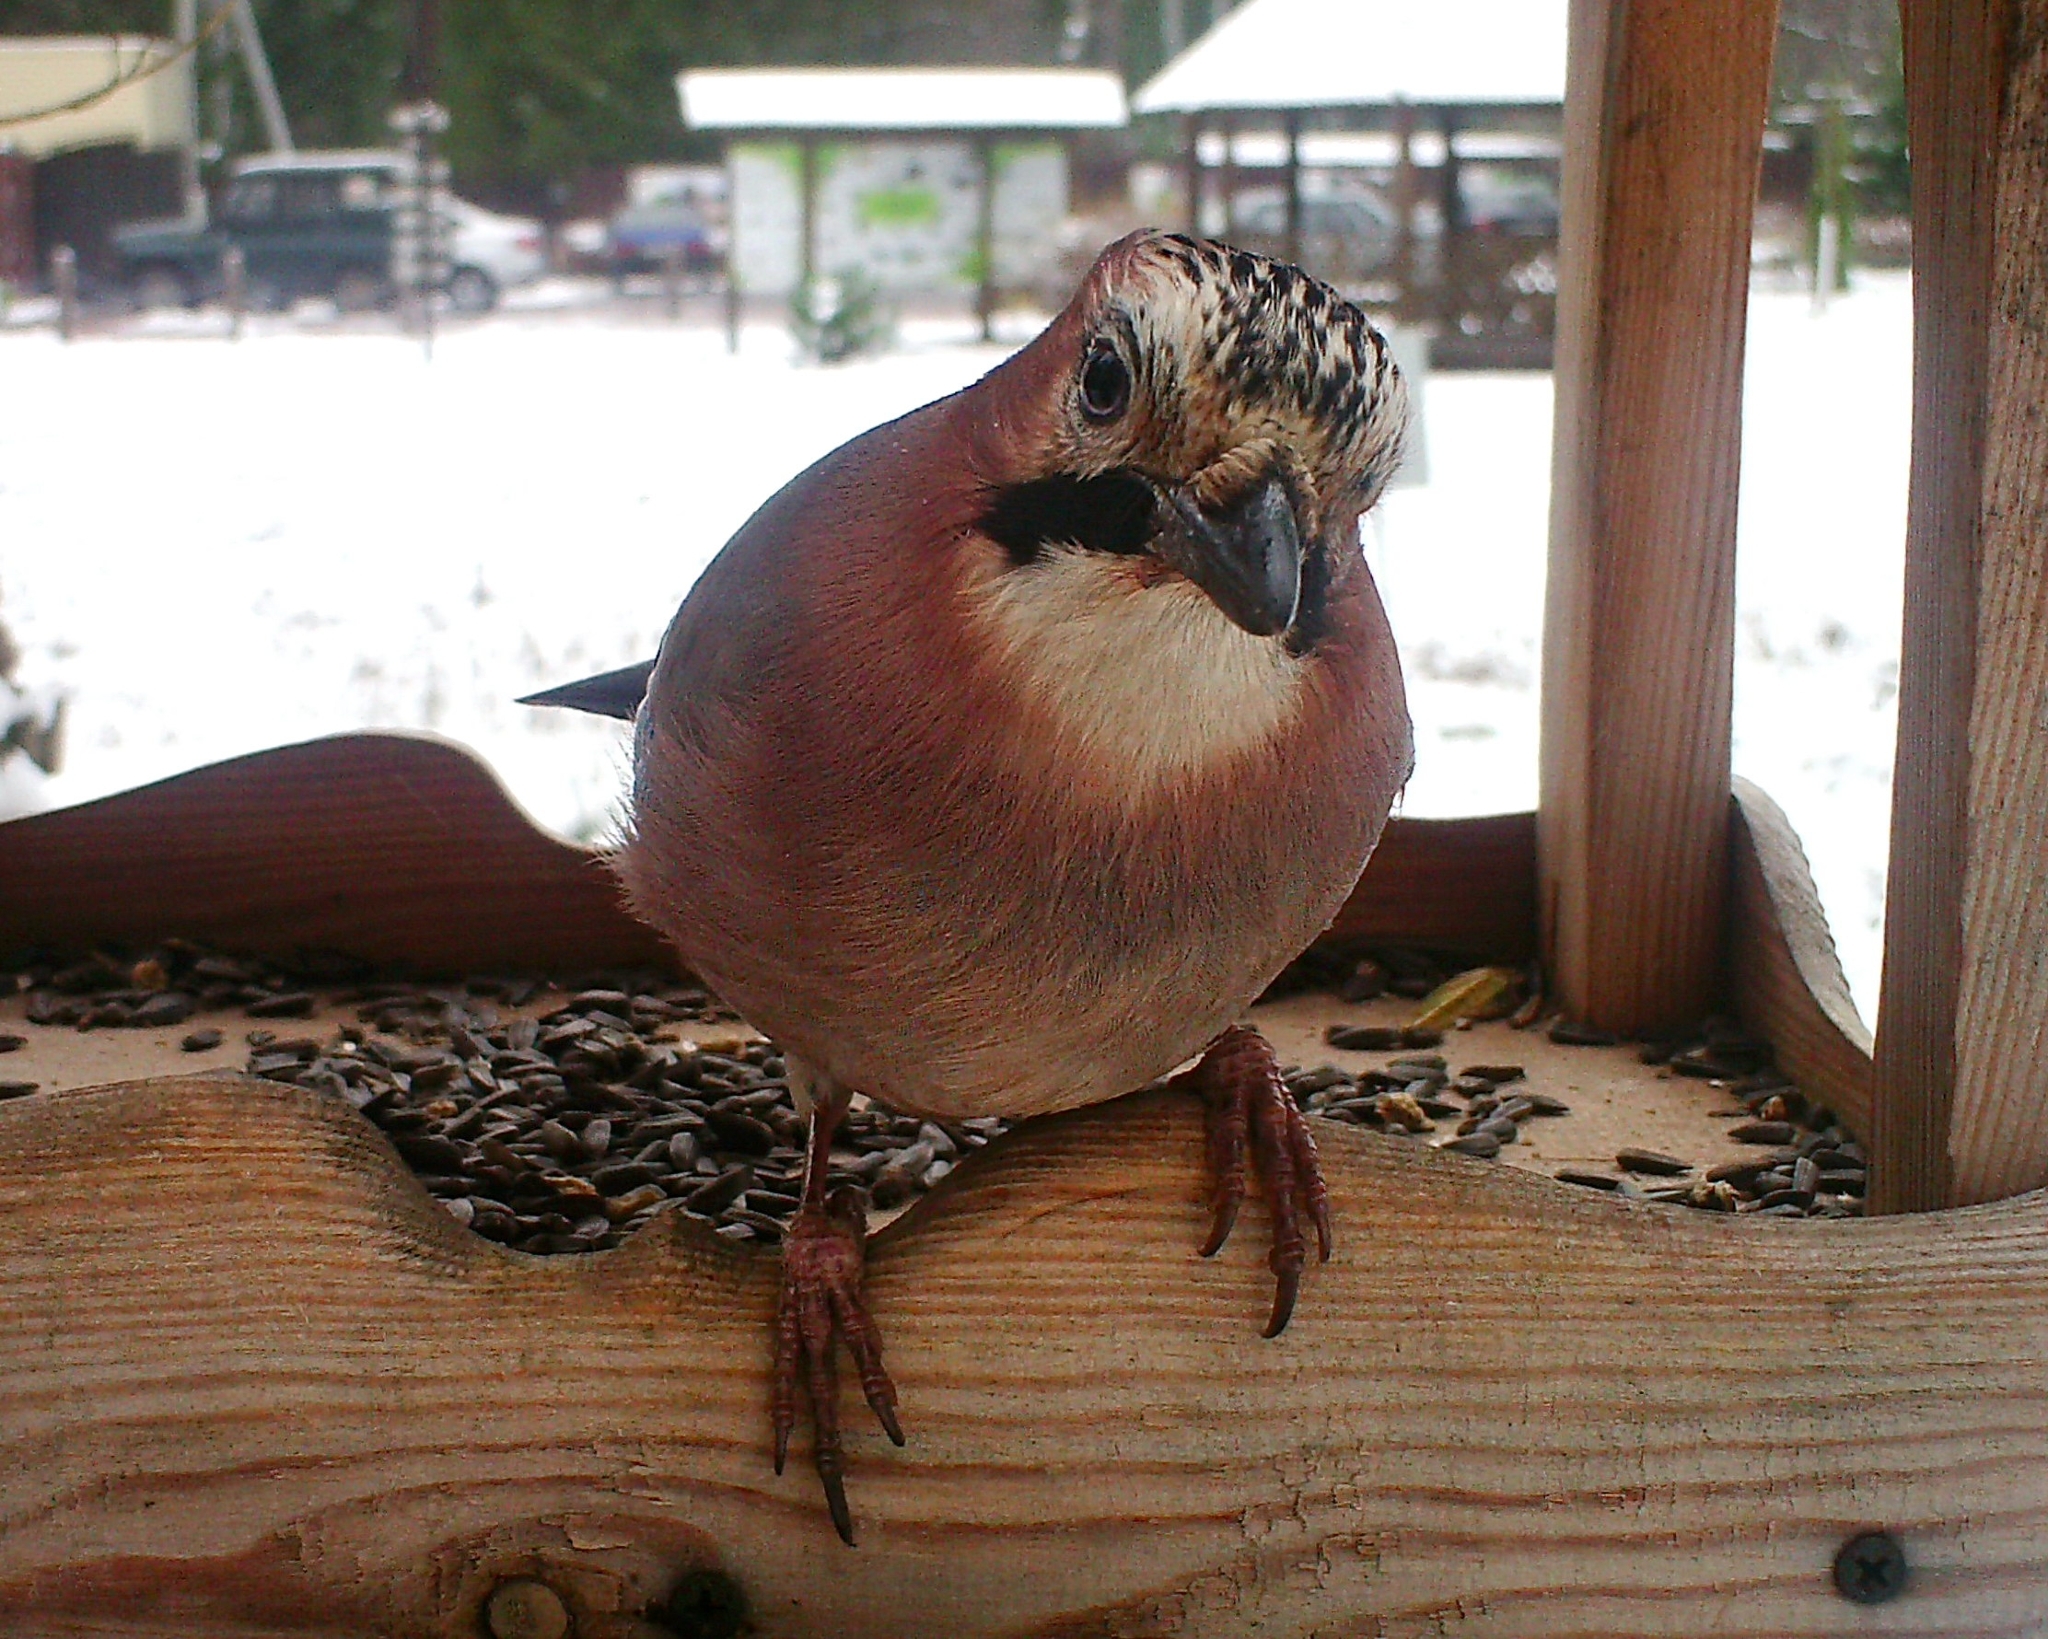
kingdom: Animalia
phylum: Chordata
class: Aves
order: Passeriformes
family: Corvidae
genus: Garrulus
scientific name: Garrulus glandarius
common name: Eurasian jay
